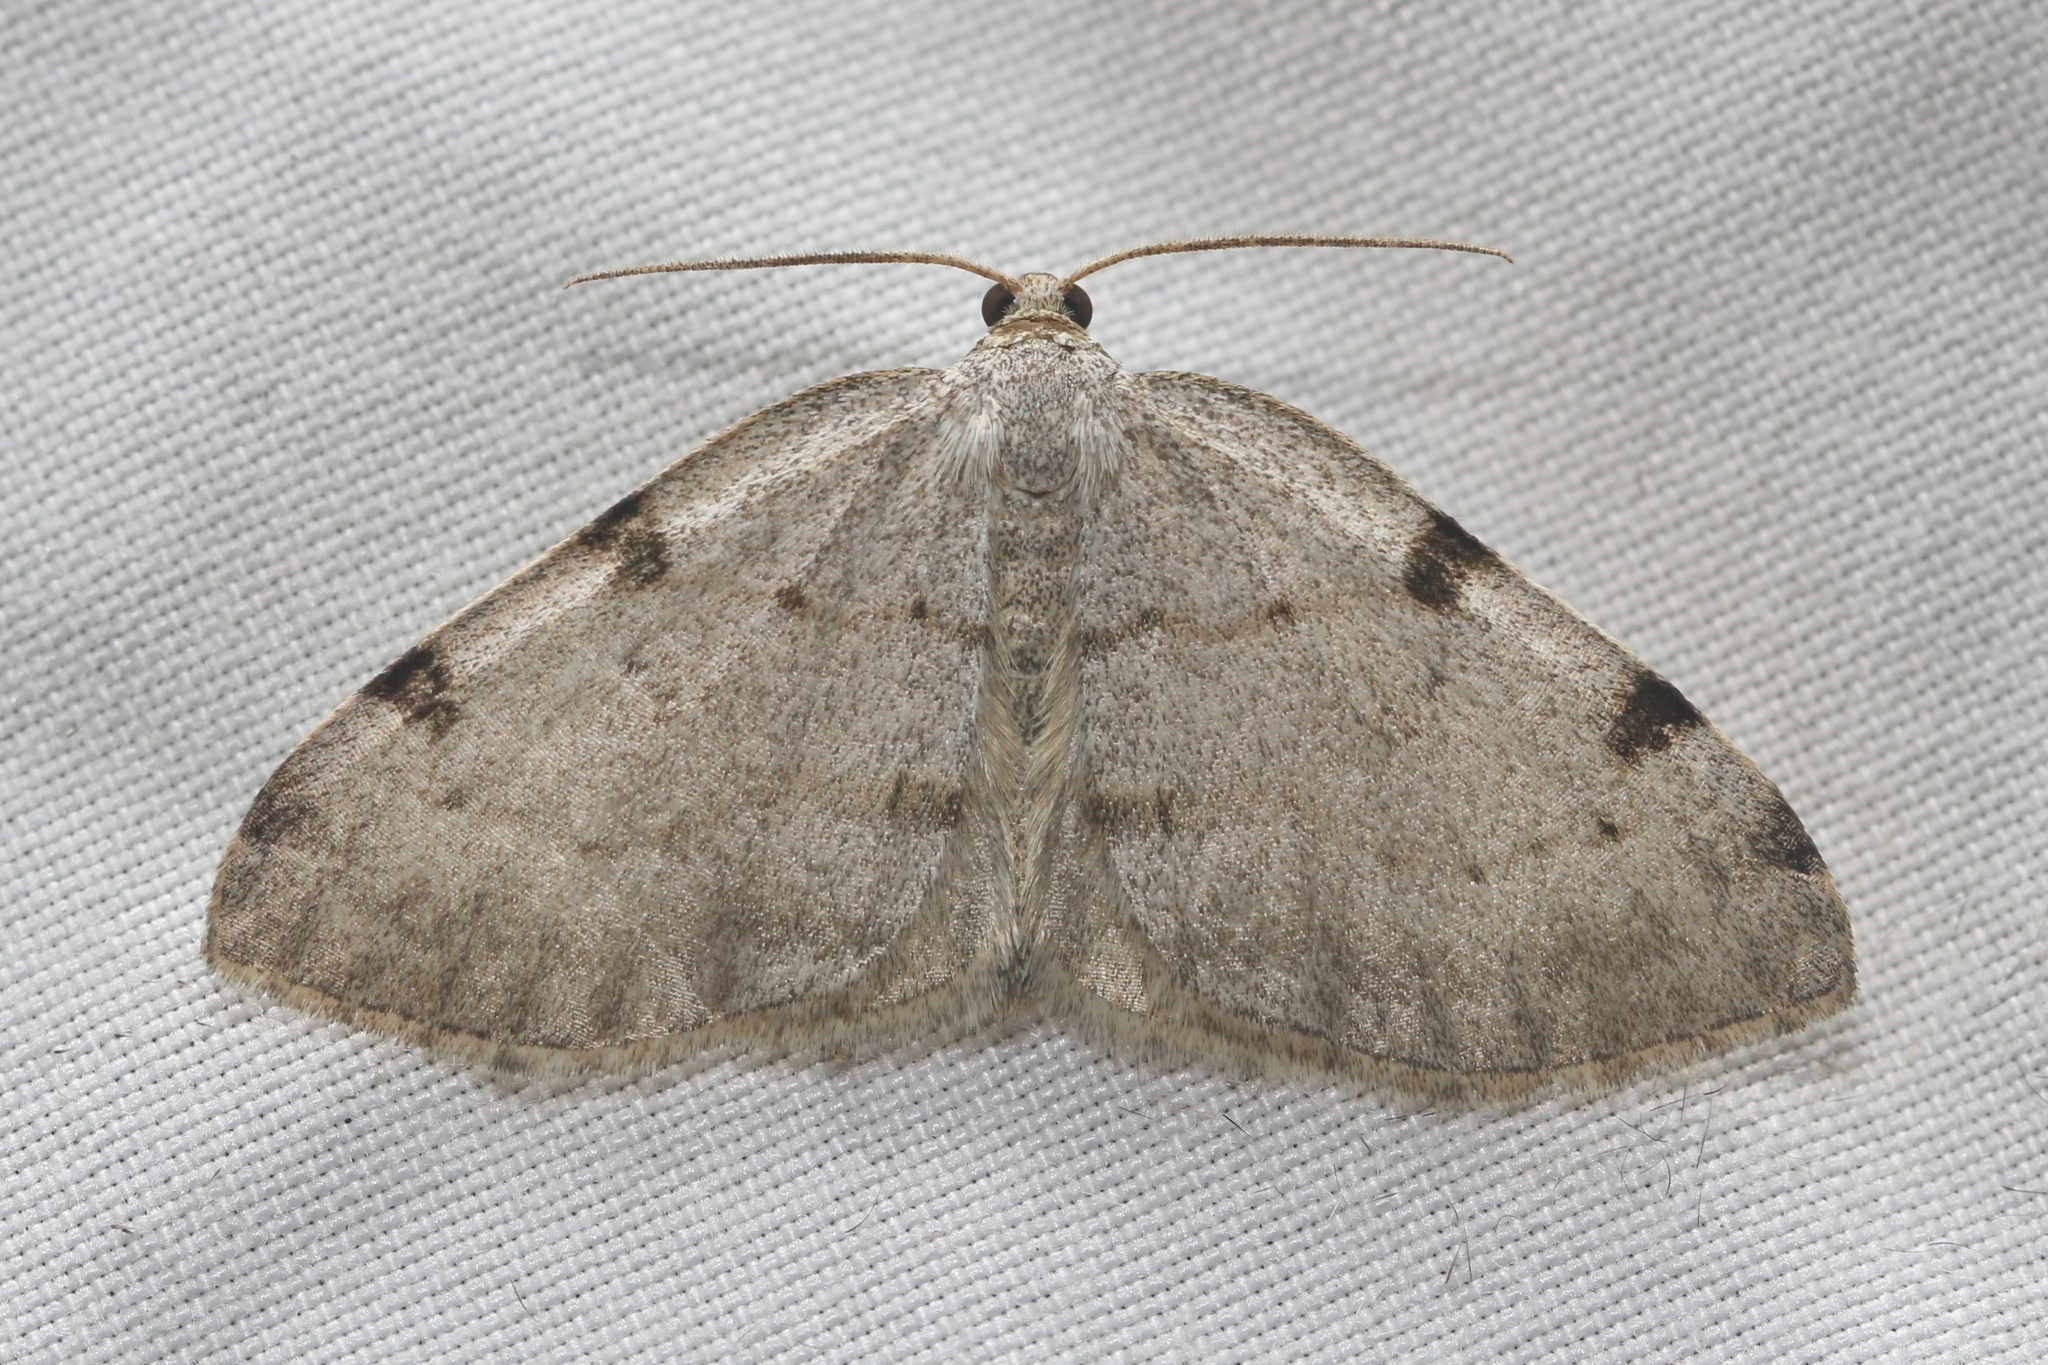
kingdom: Animalia
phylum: Arthropoda
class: Insecta
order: Lepidoptera
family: Geometridae
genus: Heterophleps
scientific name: Heterophleps refusaria
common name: Three-patched bigwing
